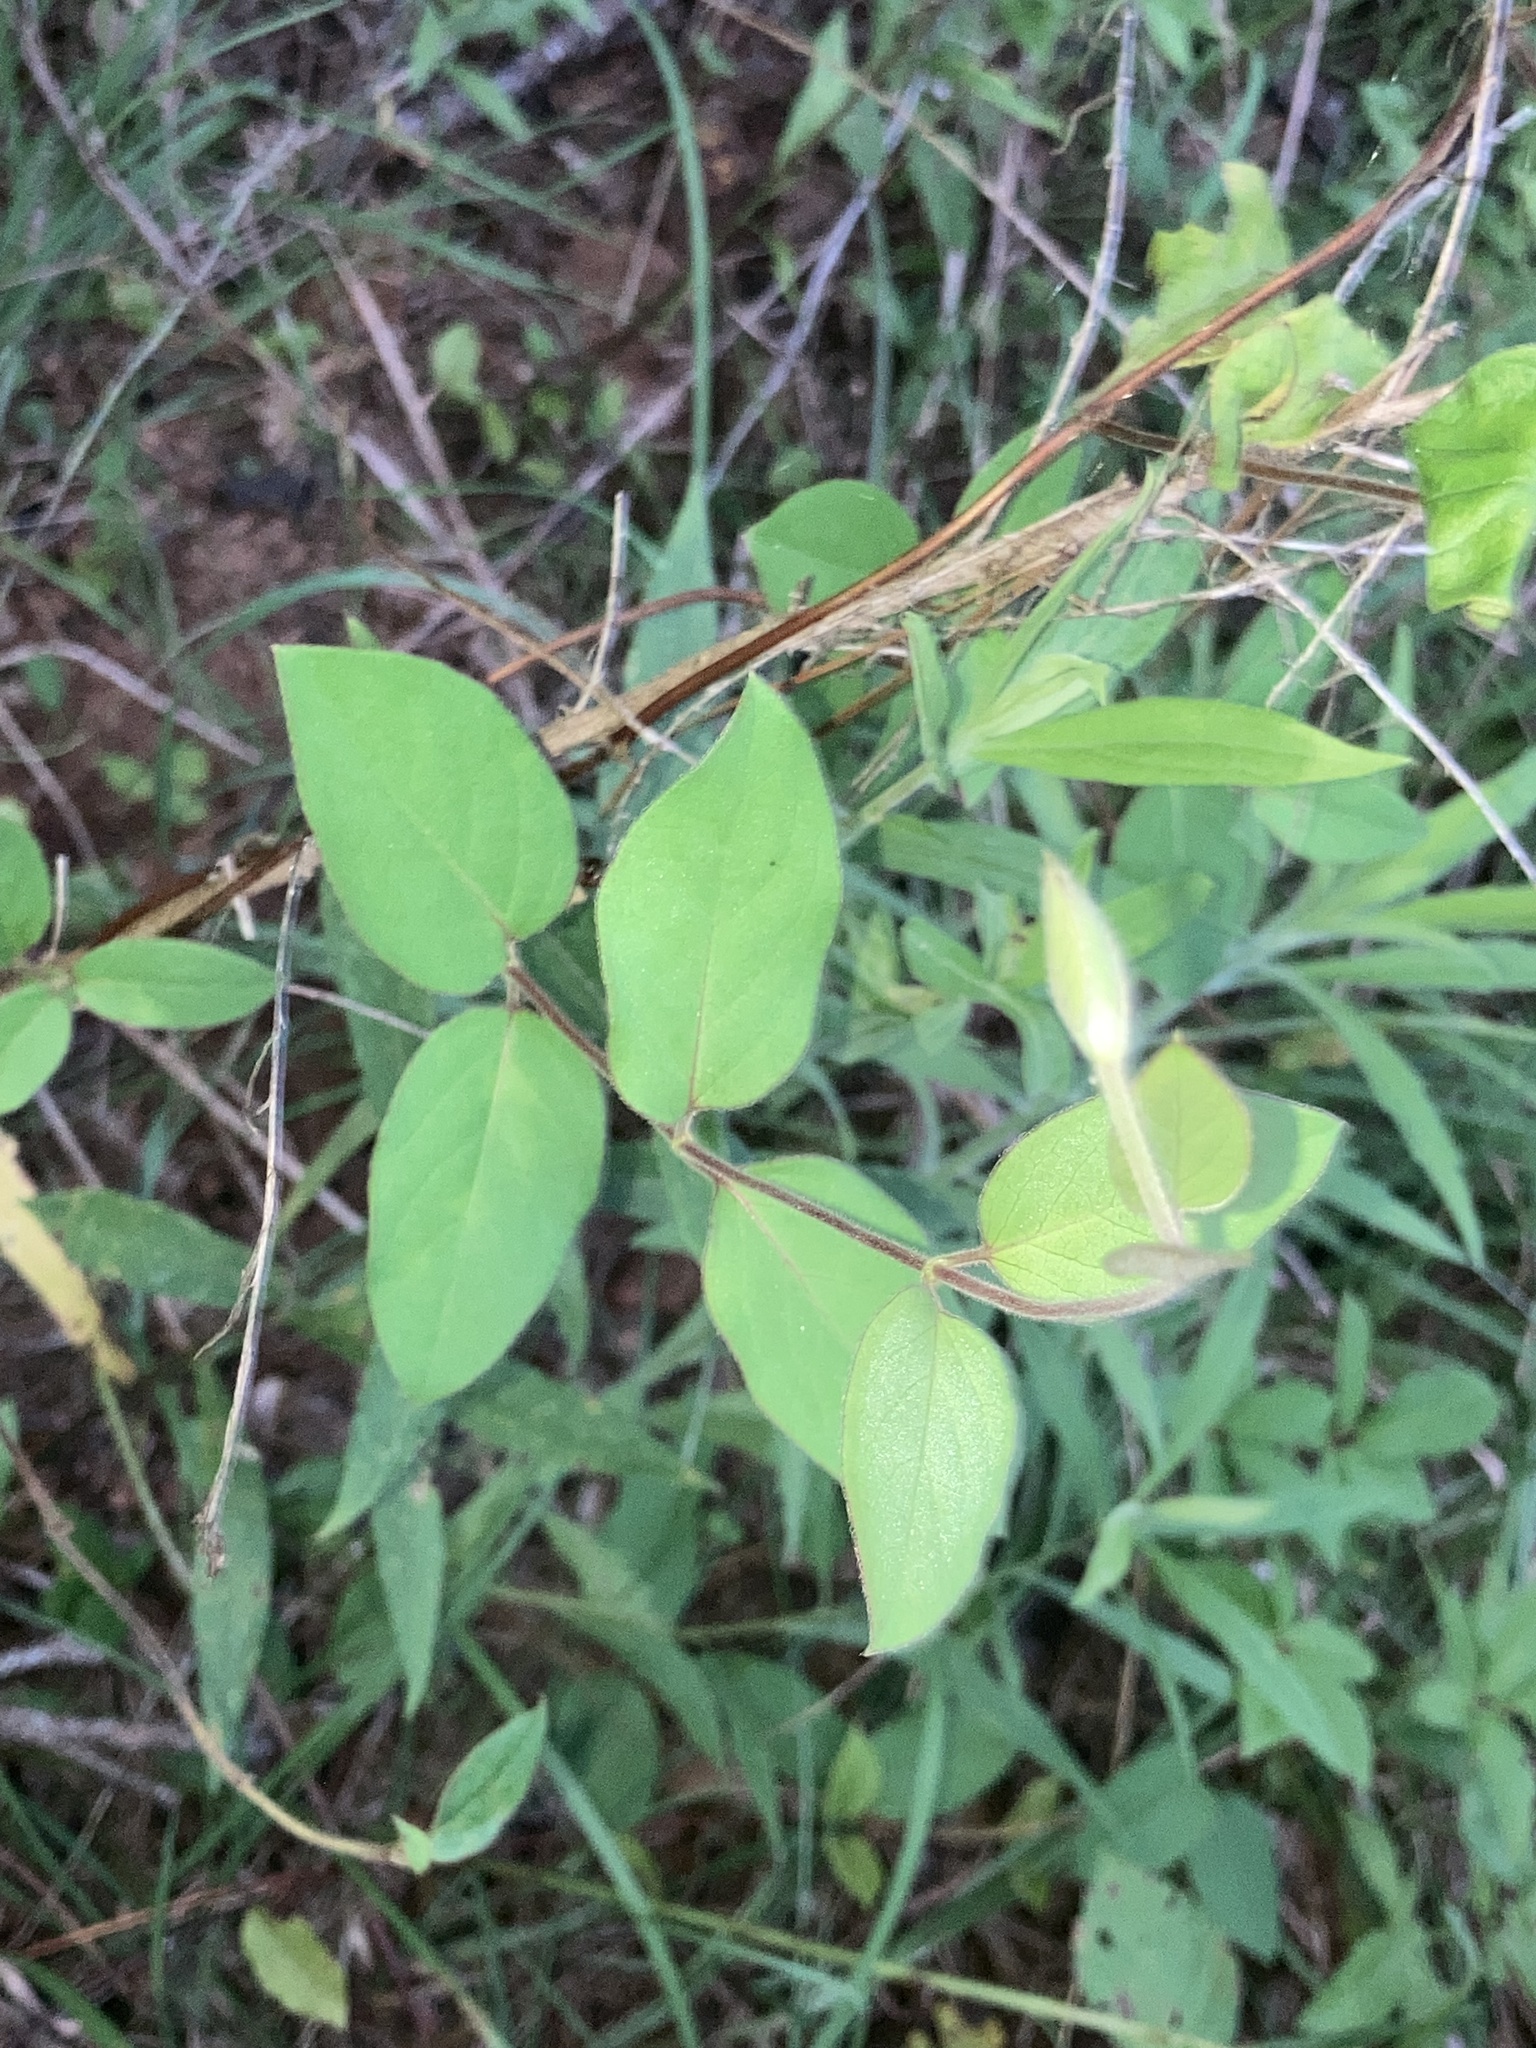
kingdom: Plantae
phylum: Tracheophyta
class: Magnoliopsida
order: Dipsacales
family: Caprifoliaceae
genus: Lonicera
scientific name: Lonicera japonica
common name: Japanese honeysuckle
